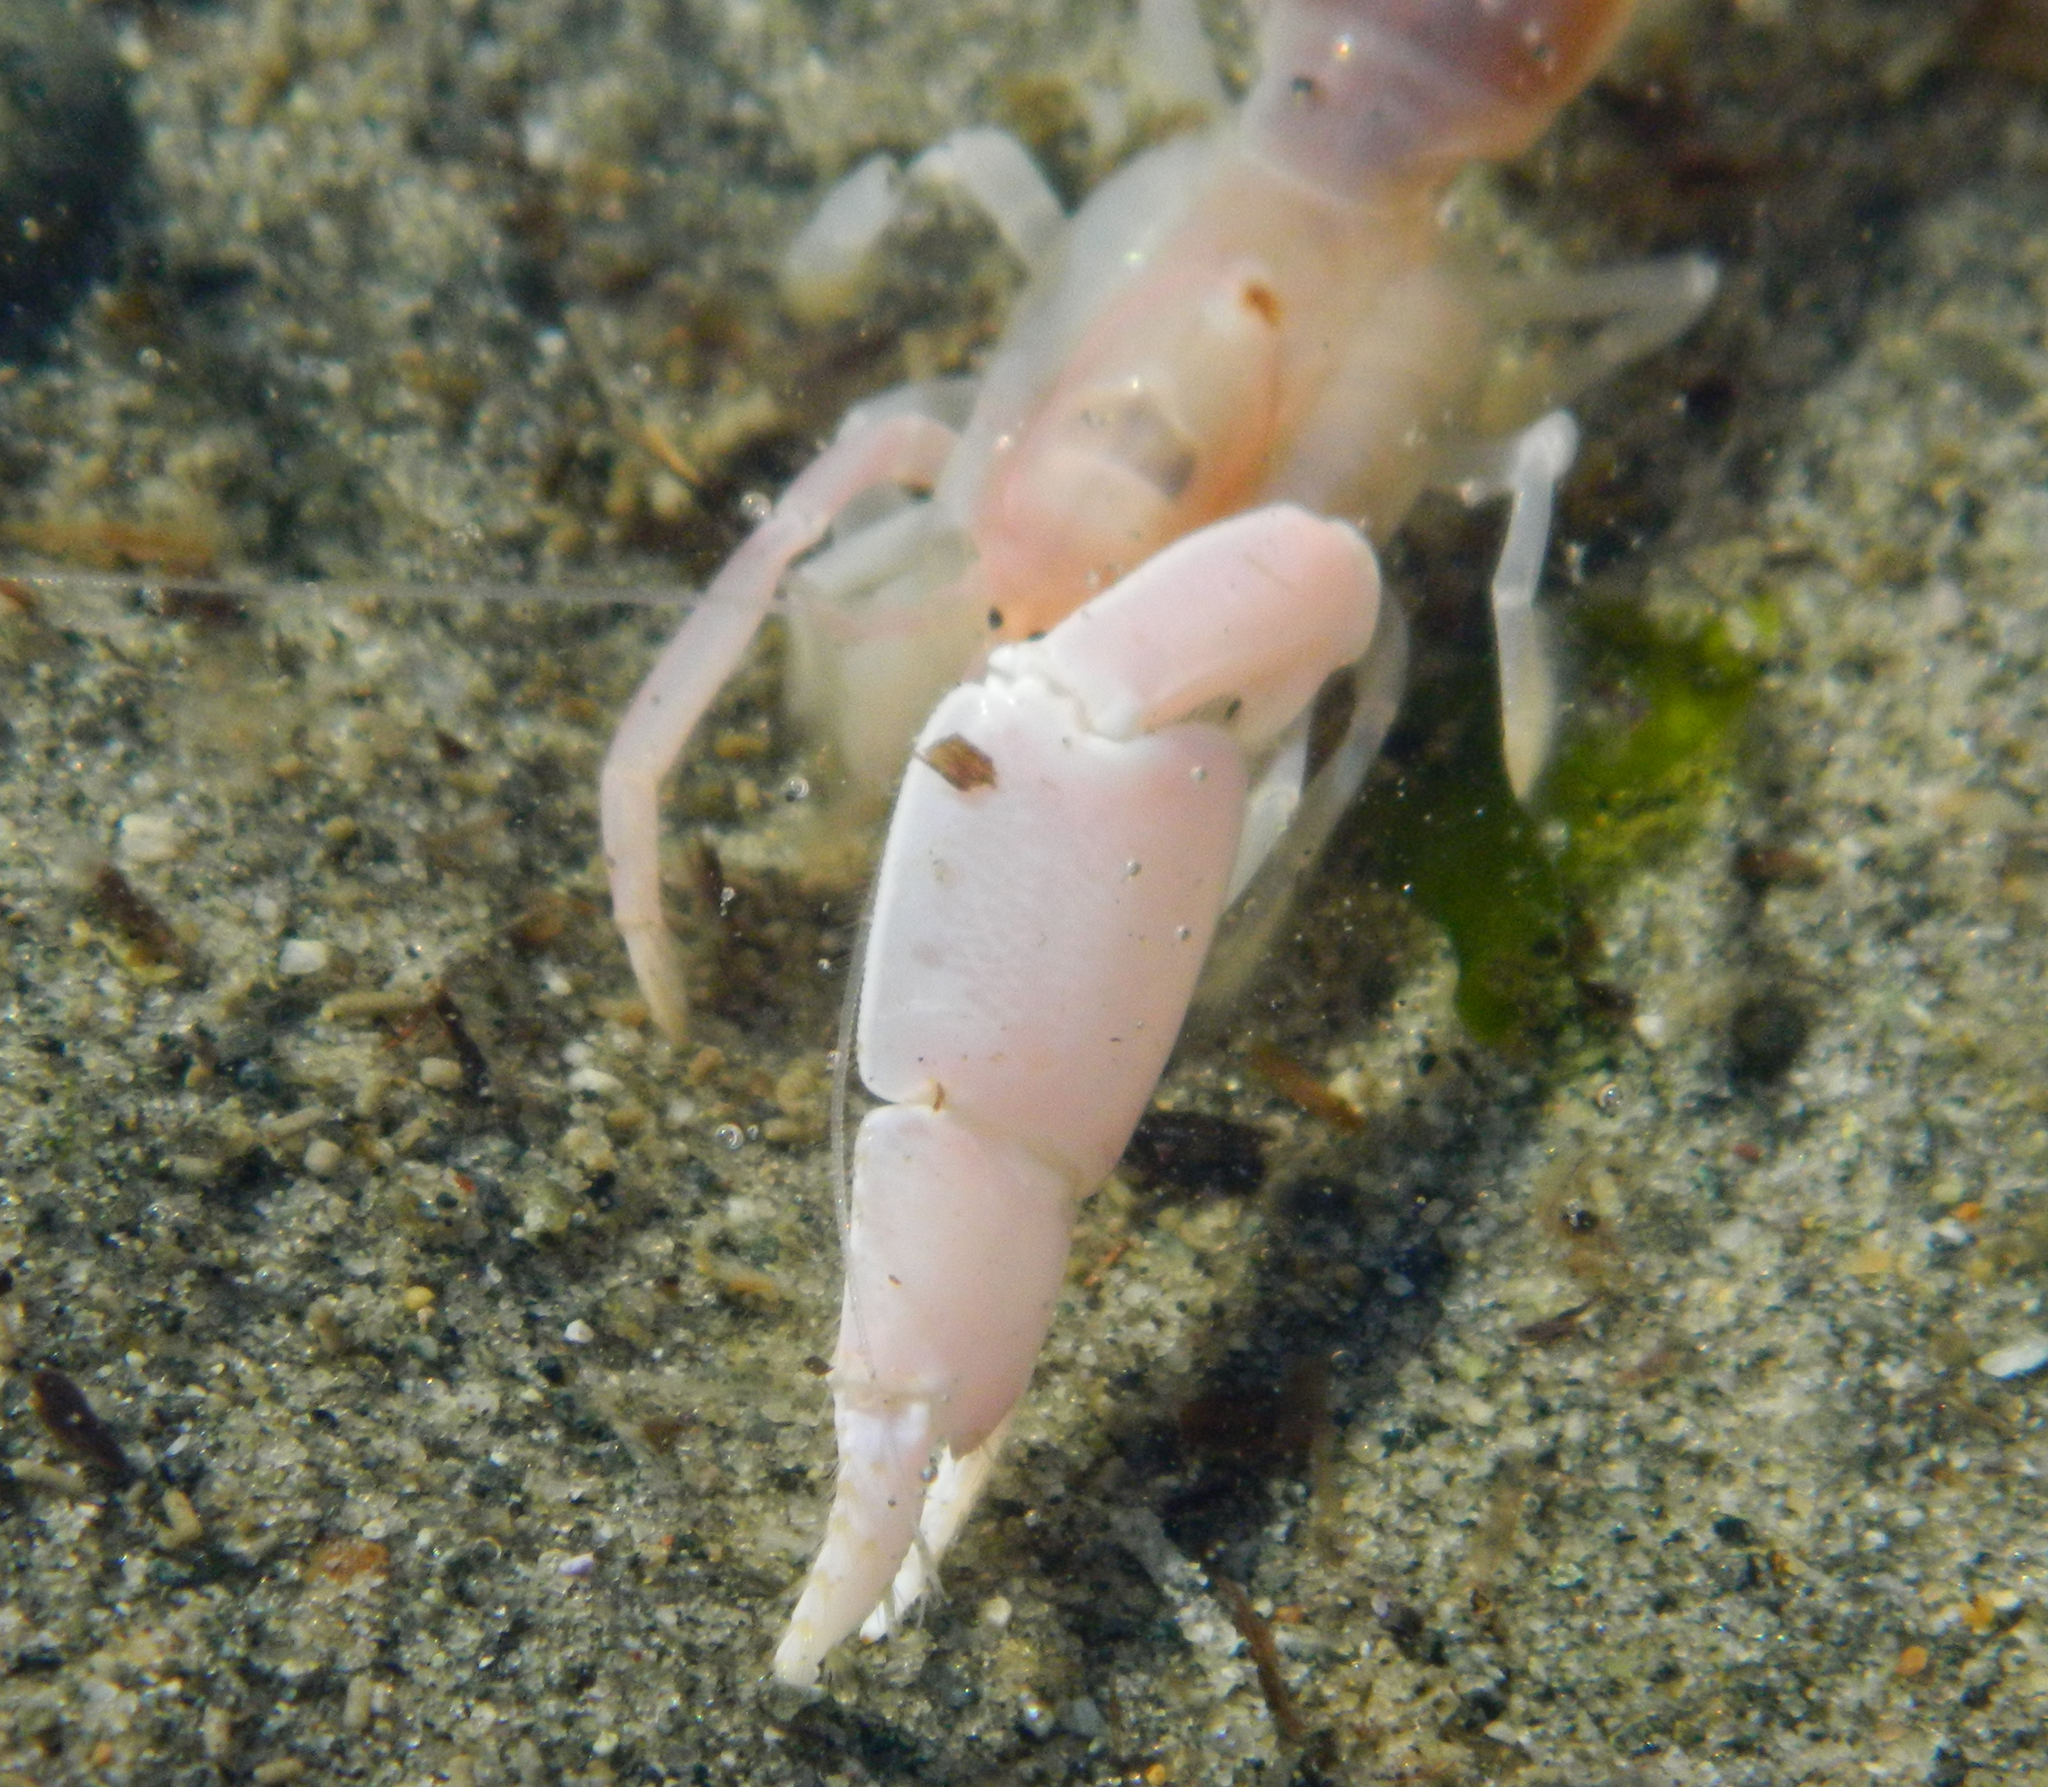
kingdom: Animalia
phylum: Arthropoda
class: Malacostraca
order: Decapoda
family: Callianassidae
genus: Neotrypaea
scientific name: Neotrypaea californiensis
